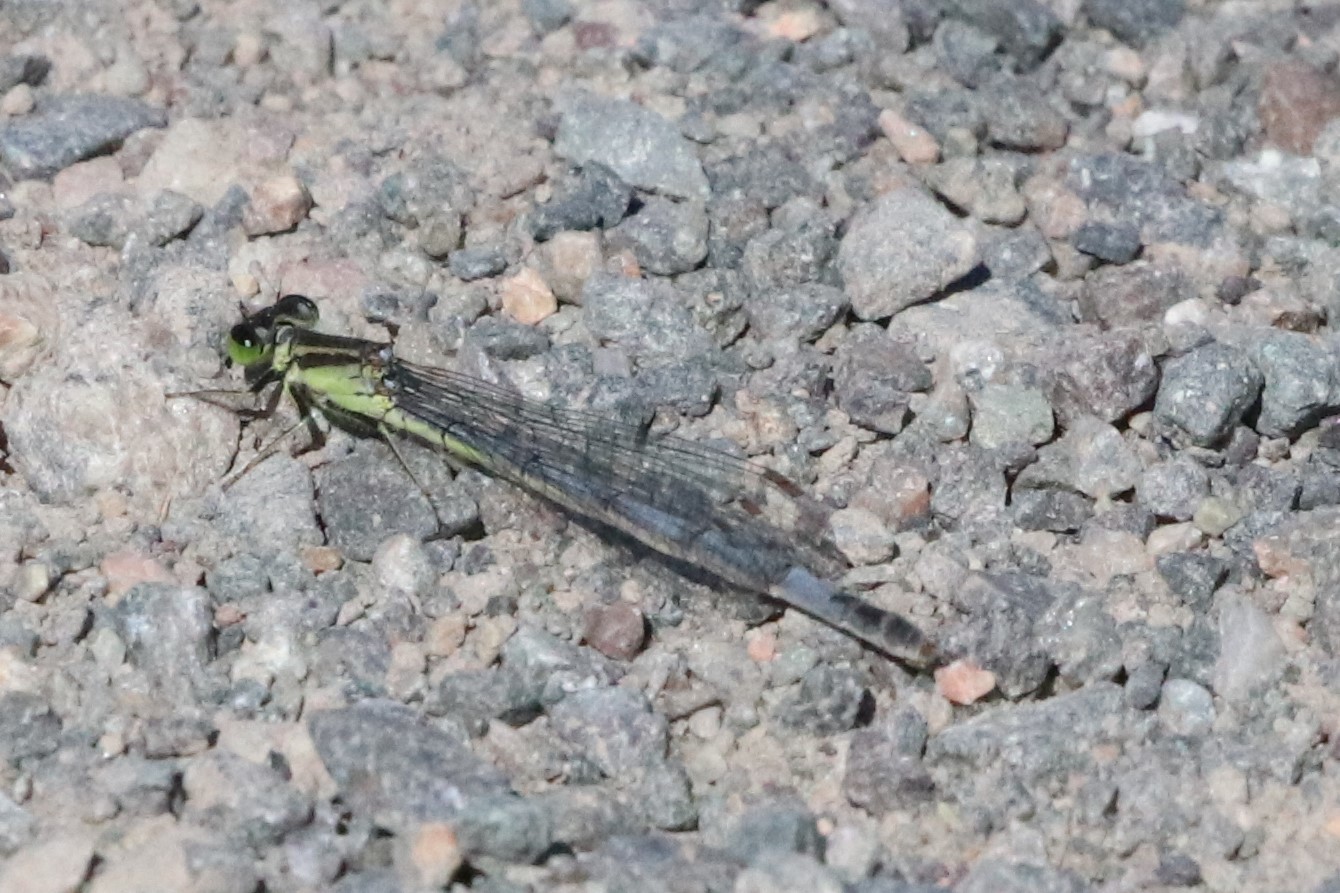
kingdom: Animalia
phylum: Arthropoda
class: Insecta
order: Odonata
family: Coenagrionidae
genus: Ischnura
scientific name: Ischnura verticalis
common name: Eastern forktail
